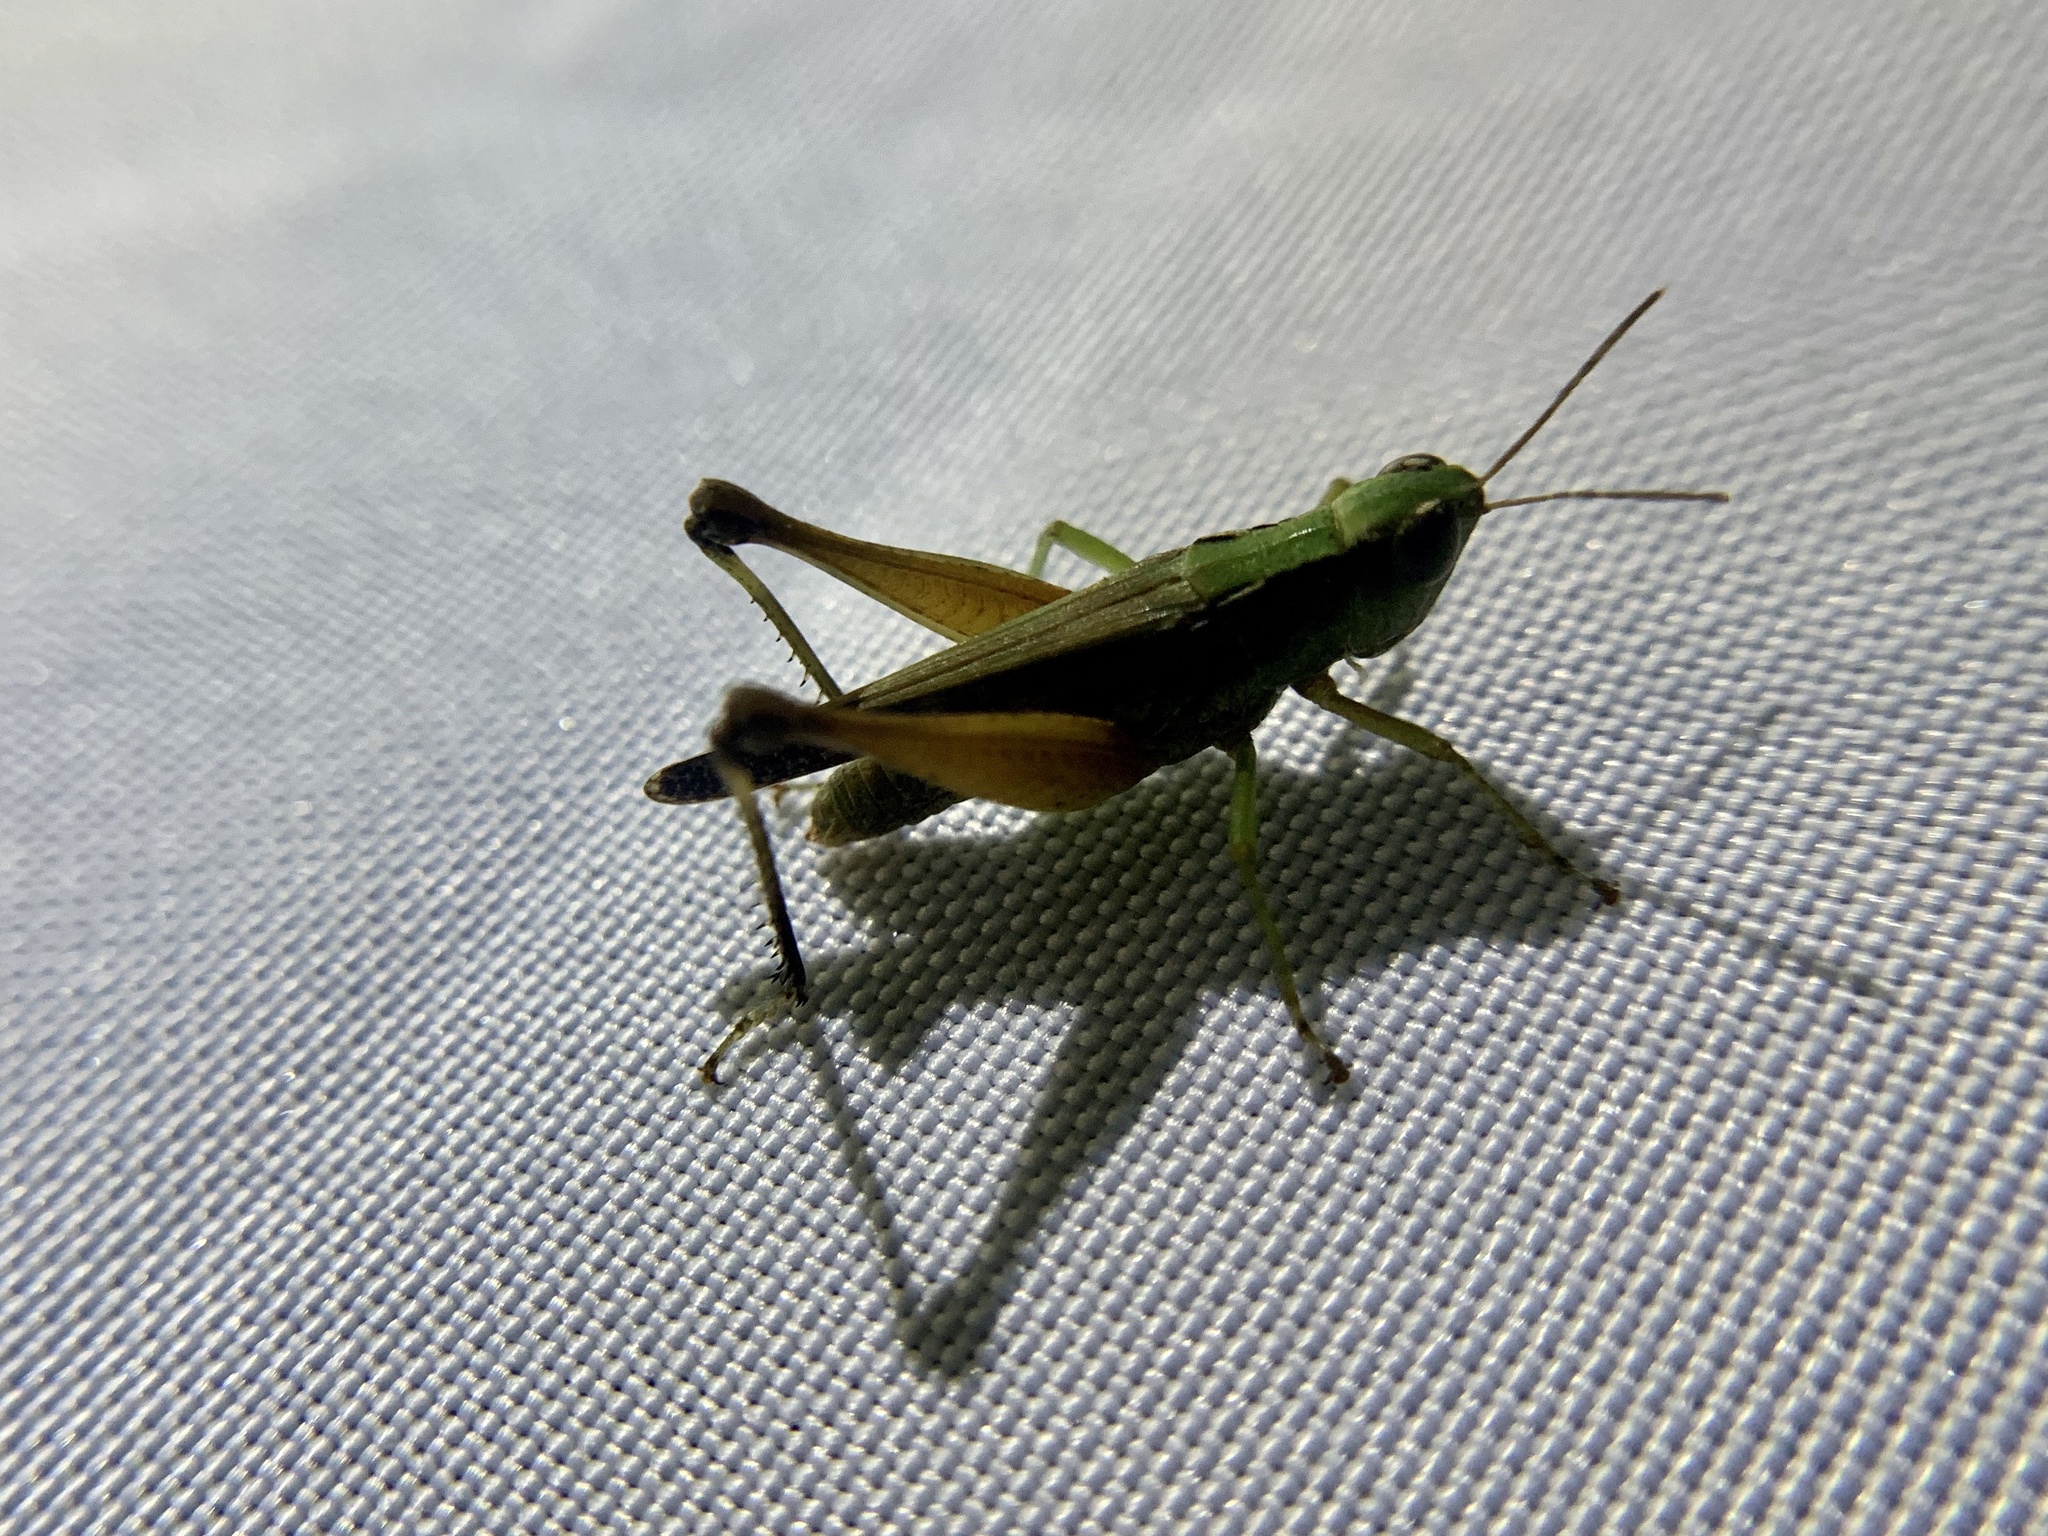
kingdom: Animalia
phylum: Arthropoda
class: Insecta
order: Orthoptera
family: Acrididae
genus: Orphulella
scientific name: Orphulella concinnula
